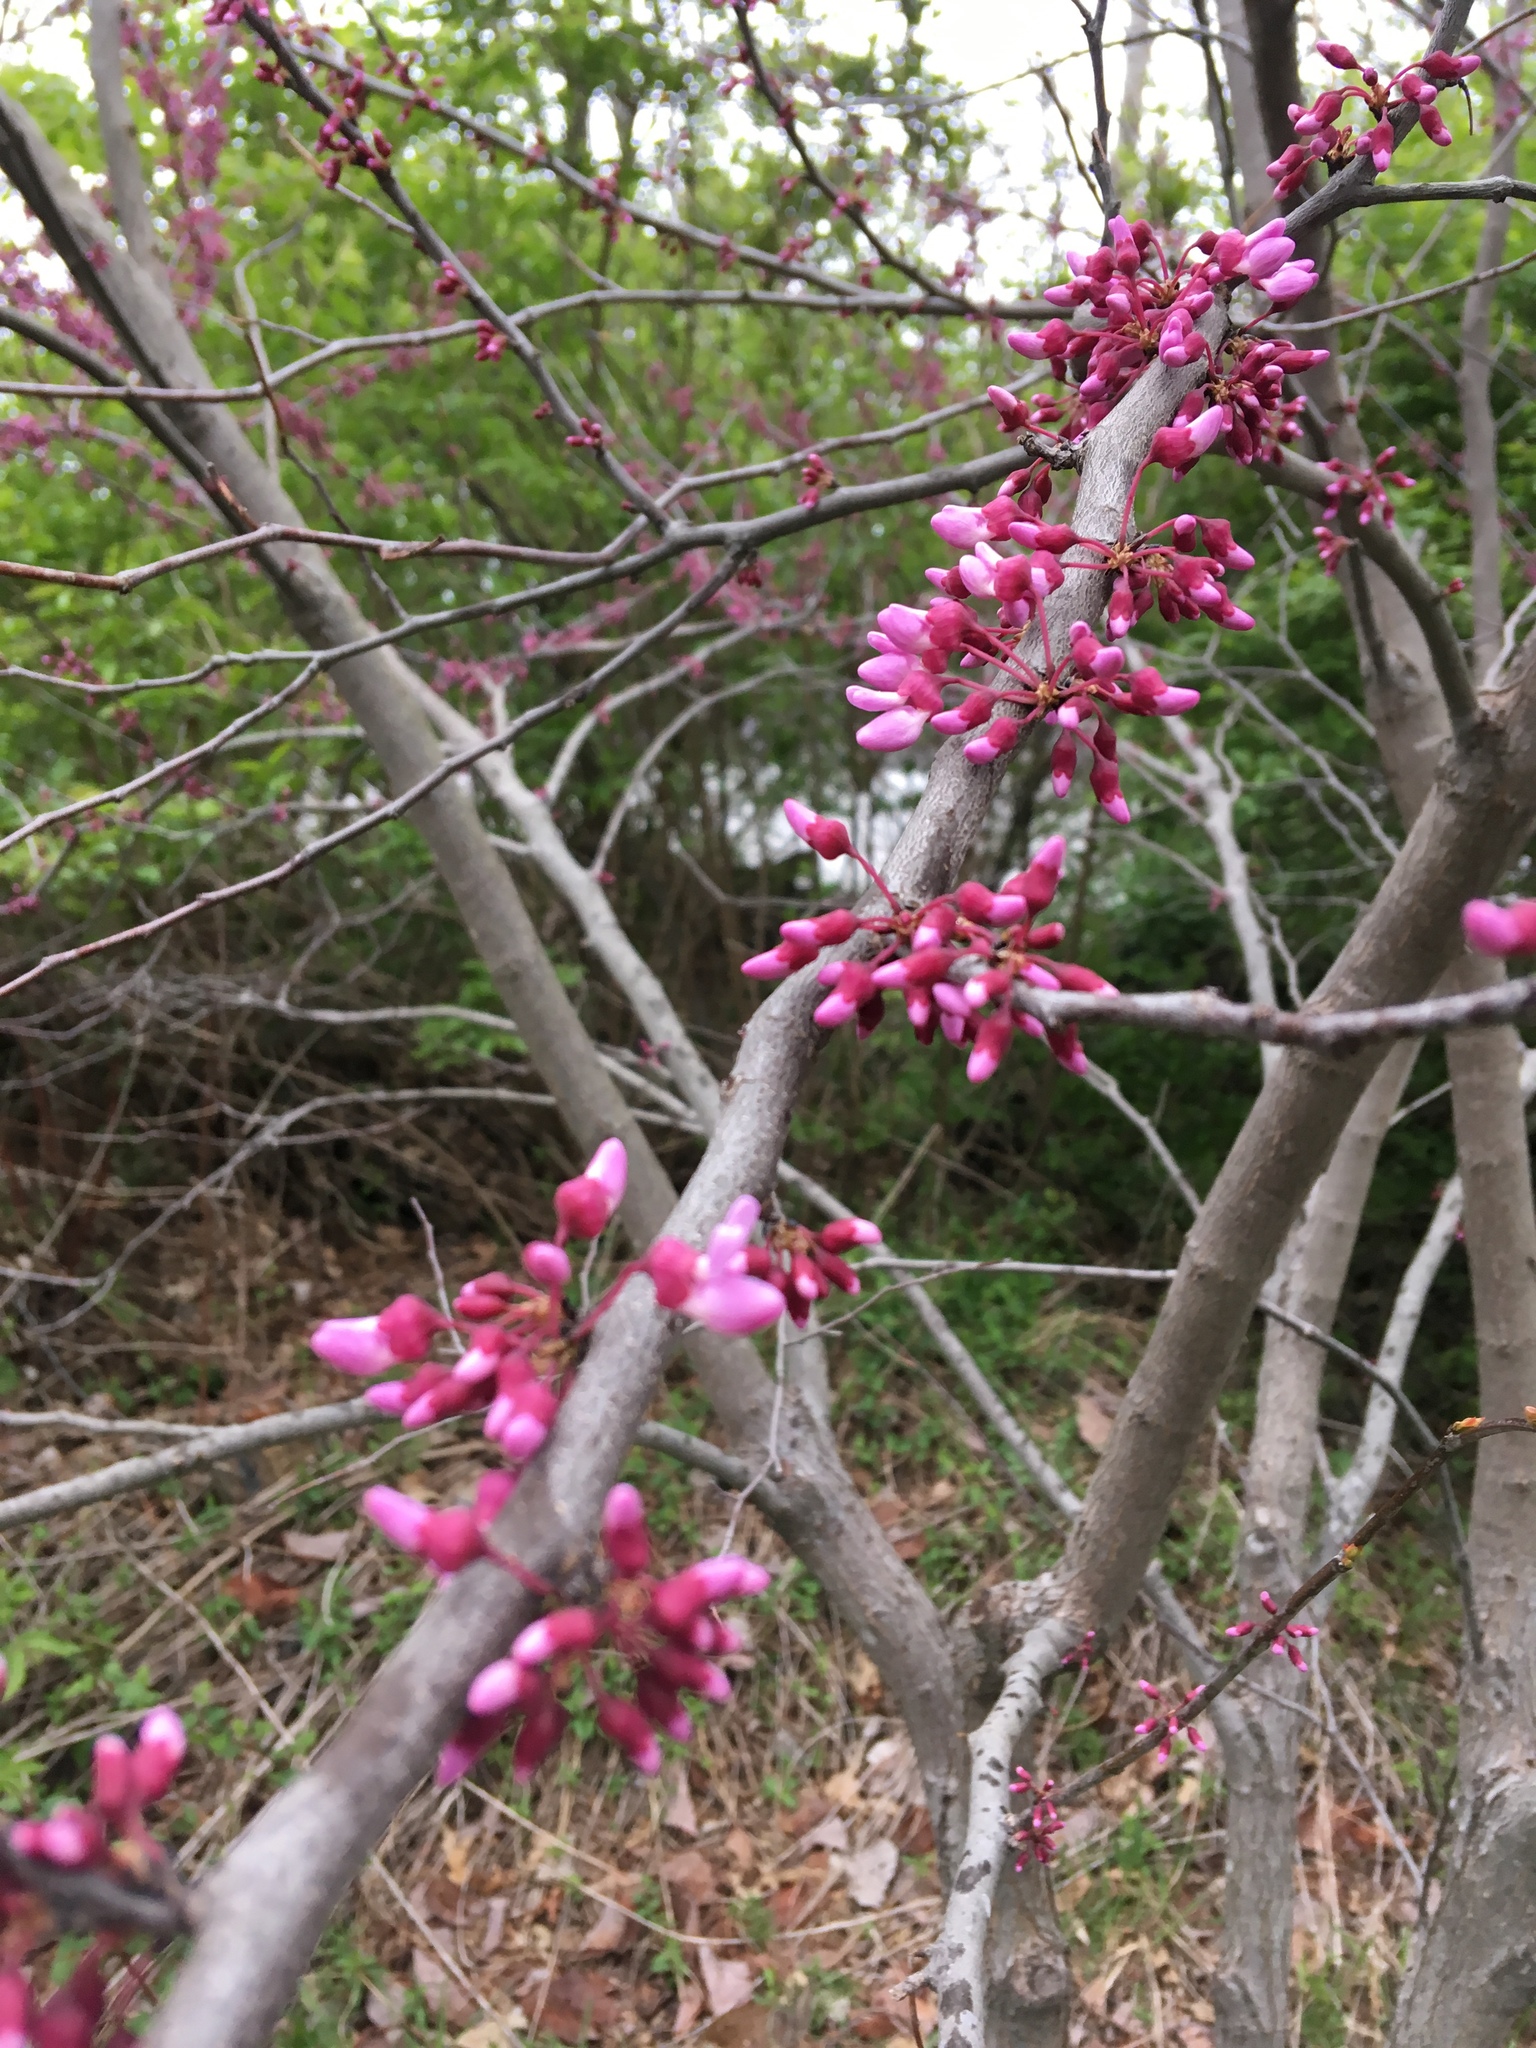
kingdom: Plantae
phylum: Tracheophyta
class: Magnoliopsida
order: Fabales
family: Fabaceae
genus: Cercis
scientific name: Cercis canadensis
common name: Eastern redbud
